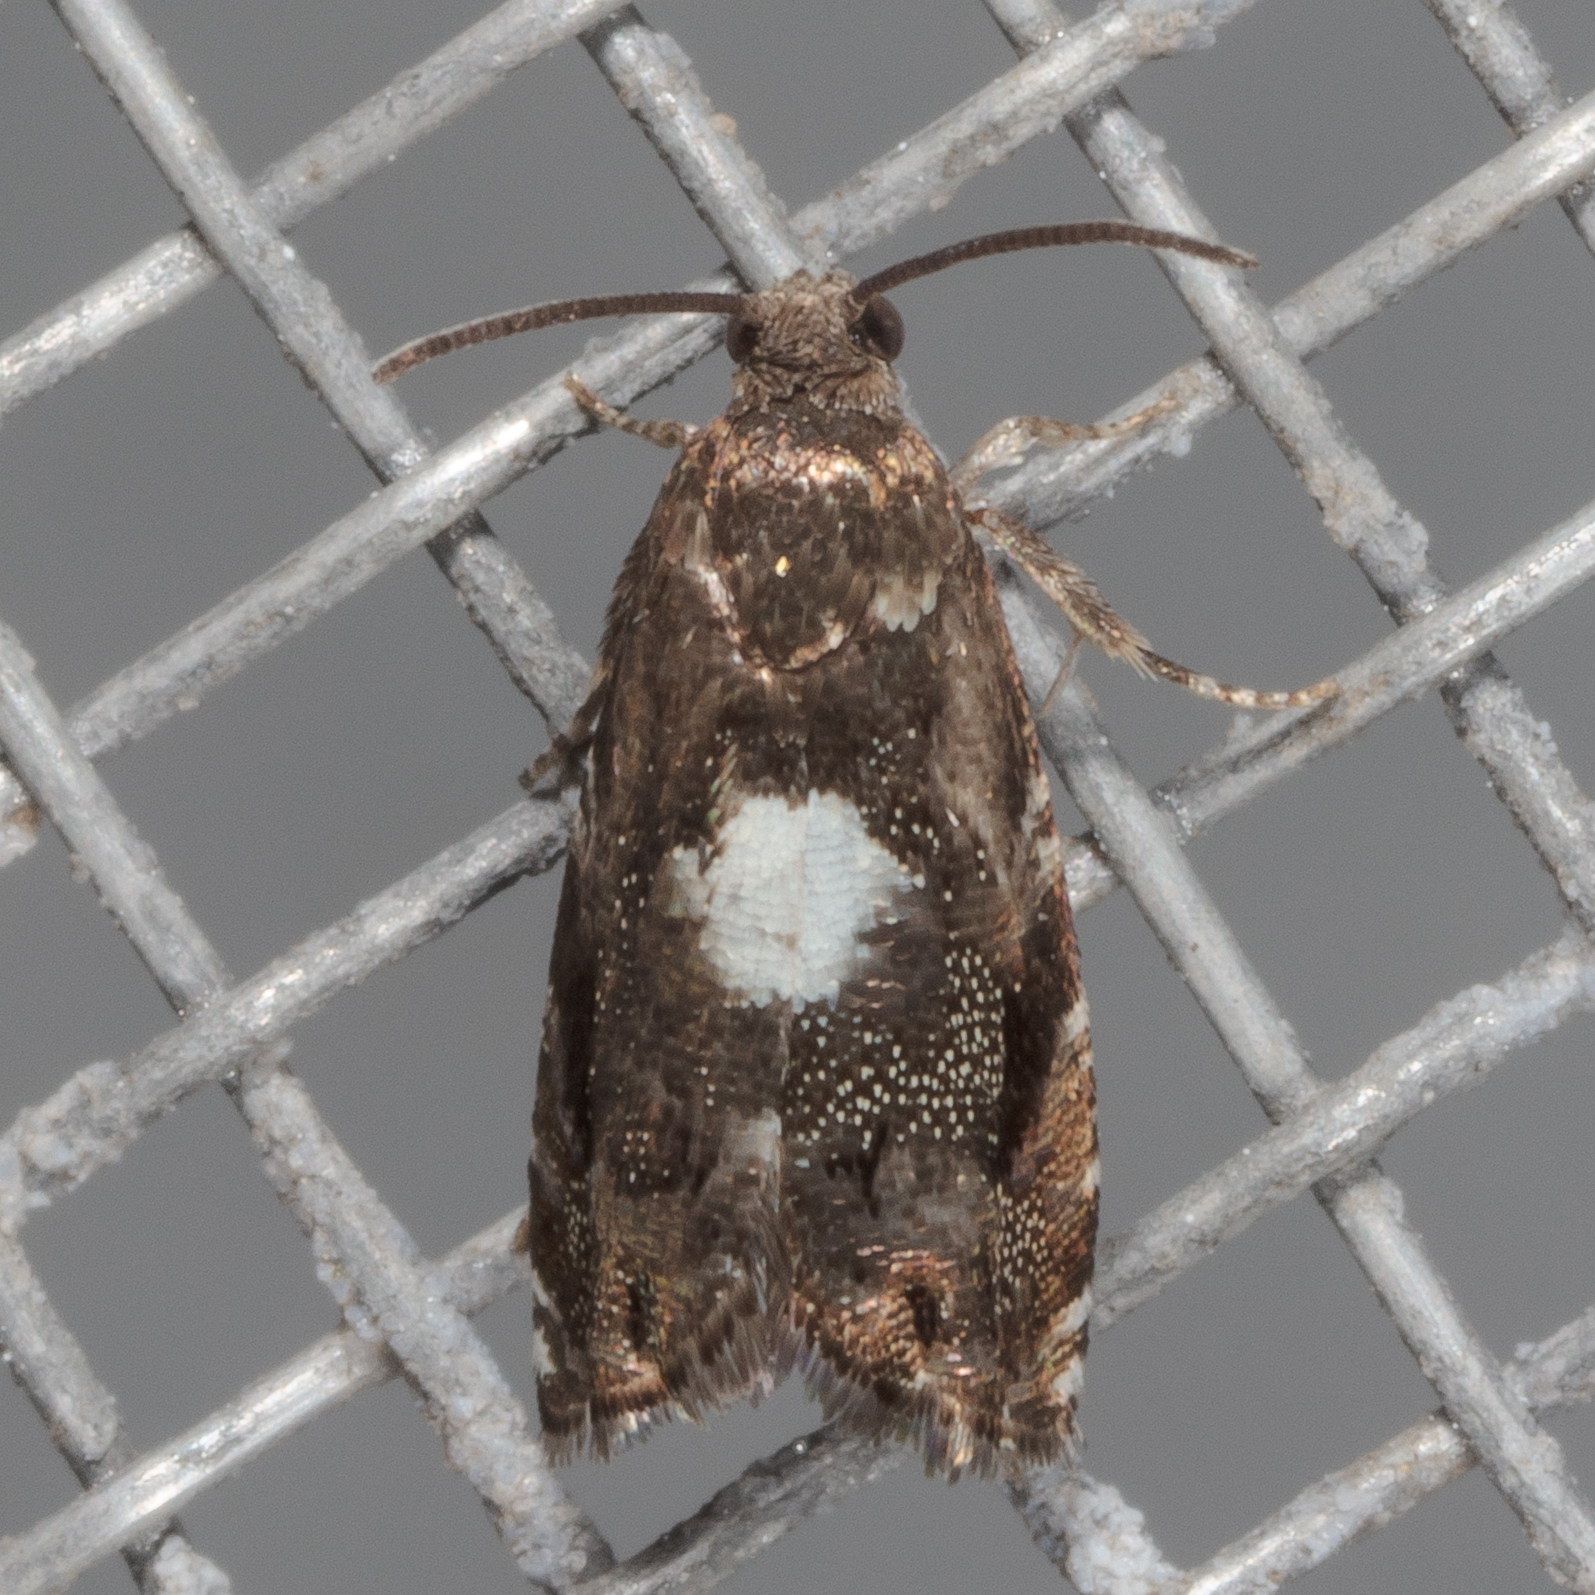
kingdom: Animalia
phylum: Arthropoda
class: Insecta
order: Lepidoptera
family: Tortricidae
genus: Cydia
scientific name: Cydia albimaculana
